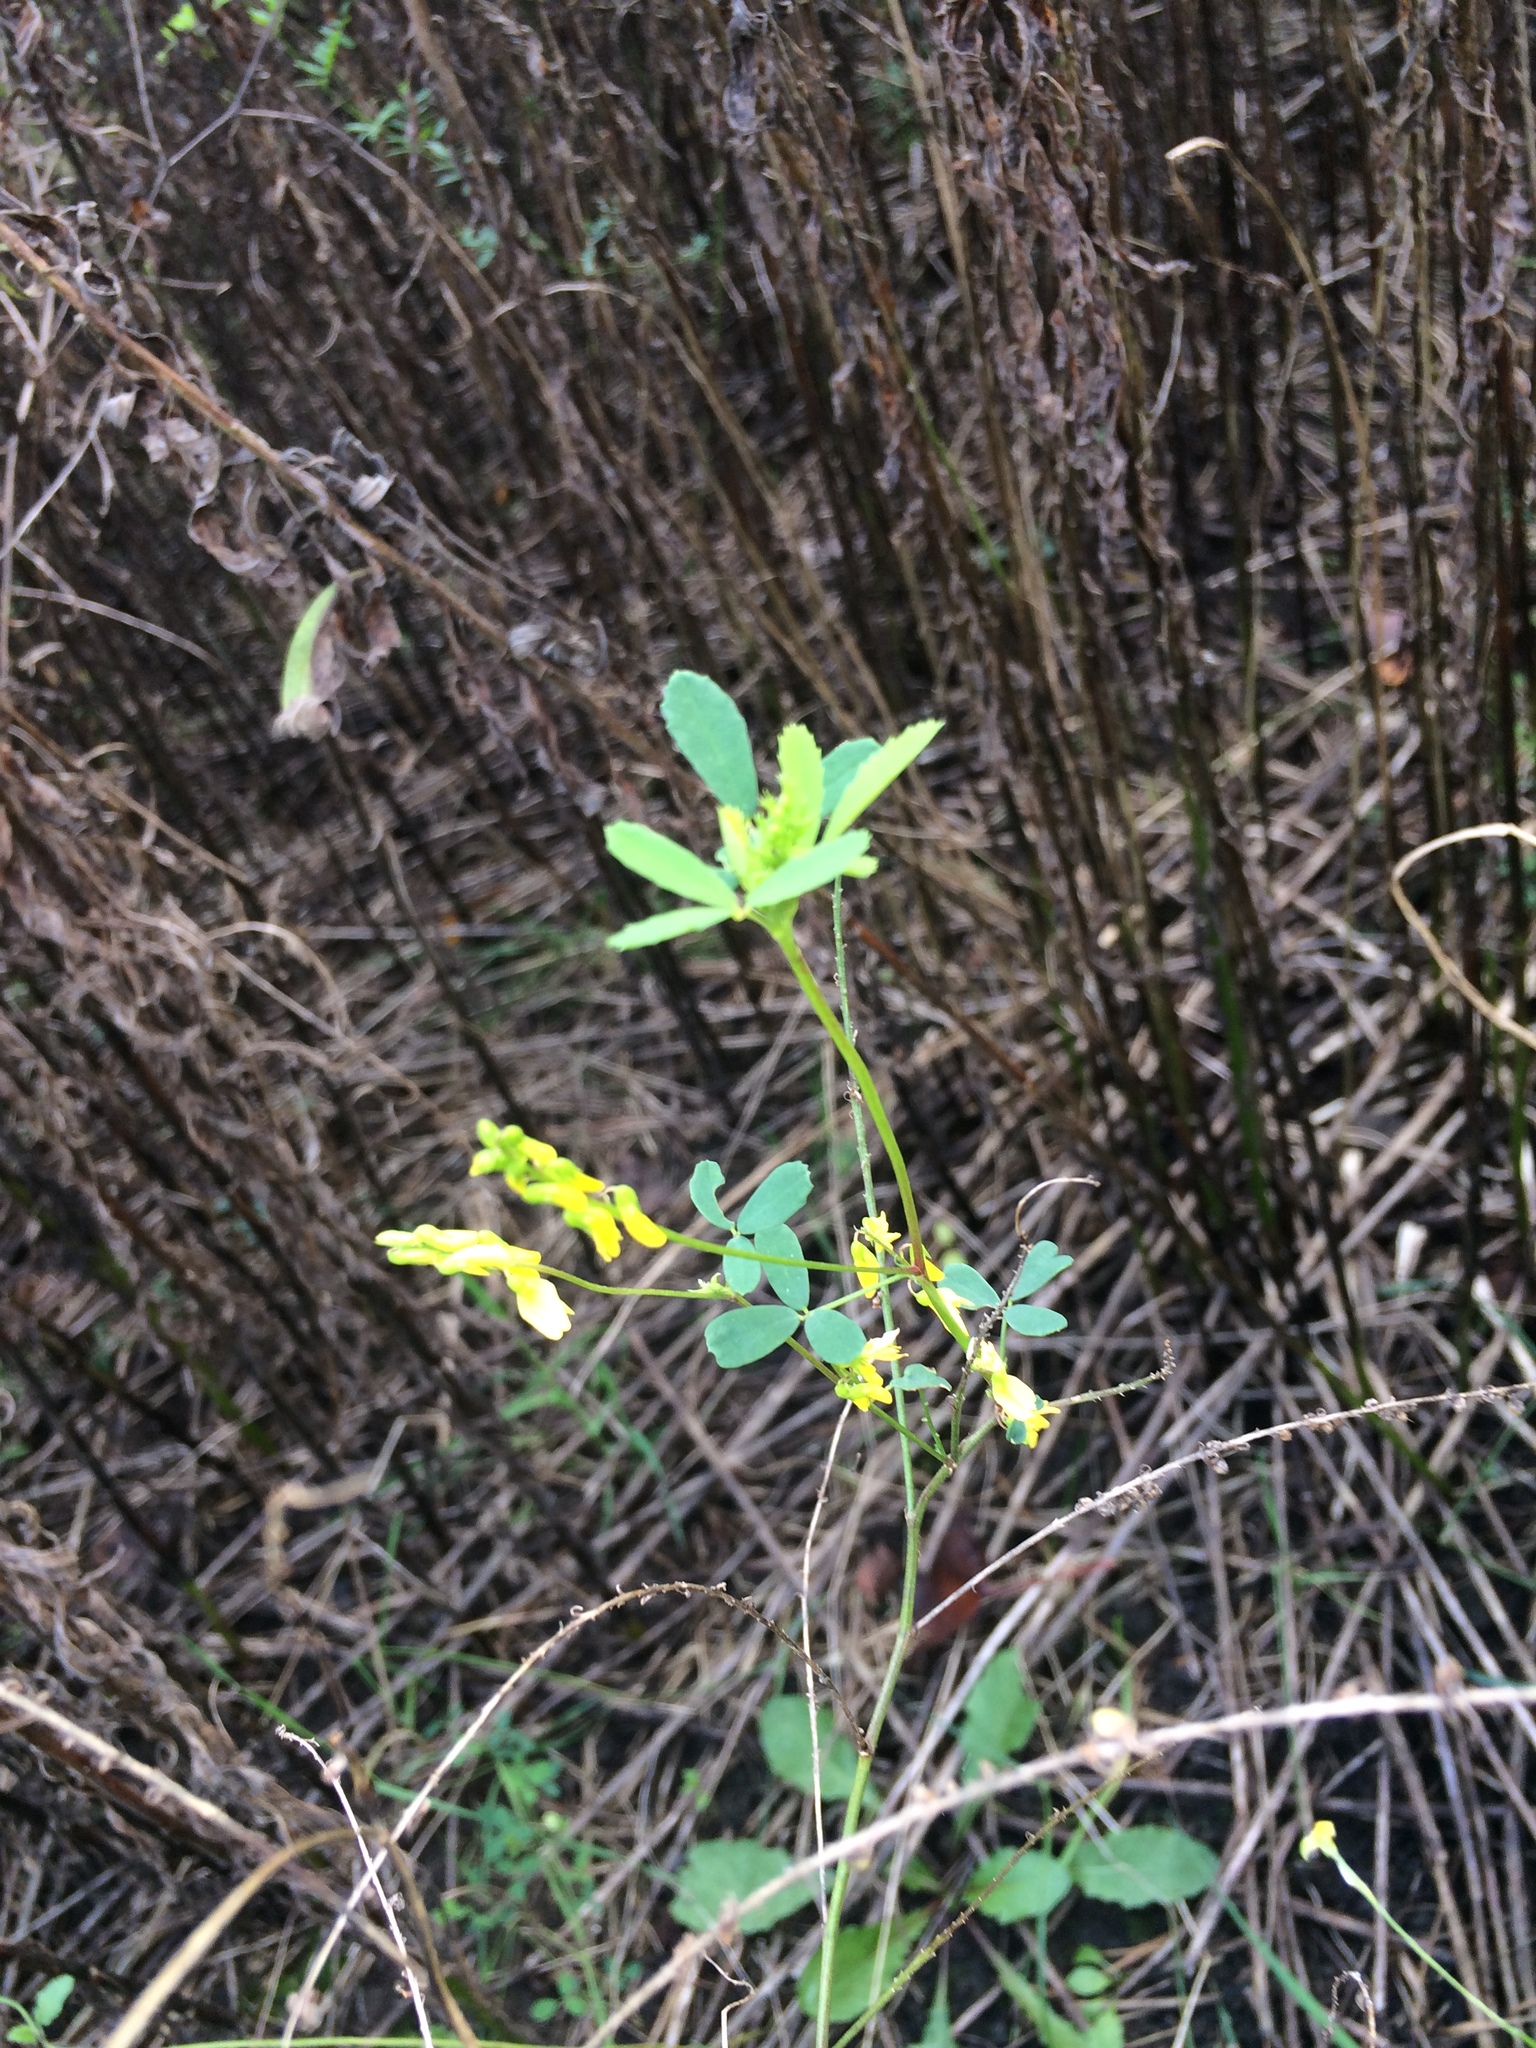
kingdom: Plantae
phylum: Tracheophyta
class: Magnoliopsida
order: Fabales
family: Fabaceae
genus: Melilotus
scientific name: Melilotus officinalis
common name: Sweetclover
